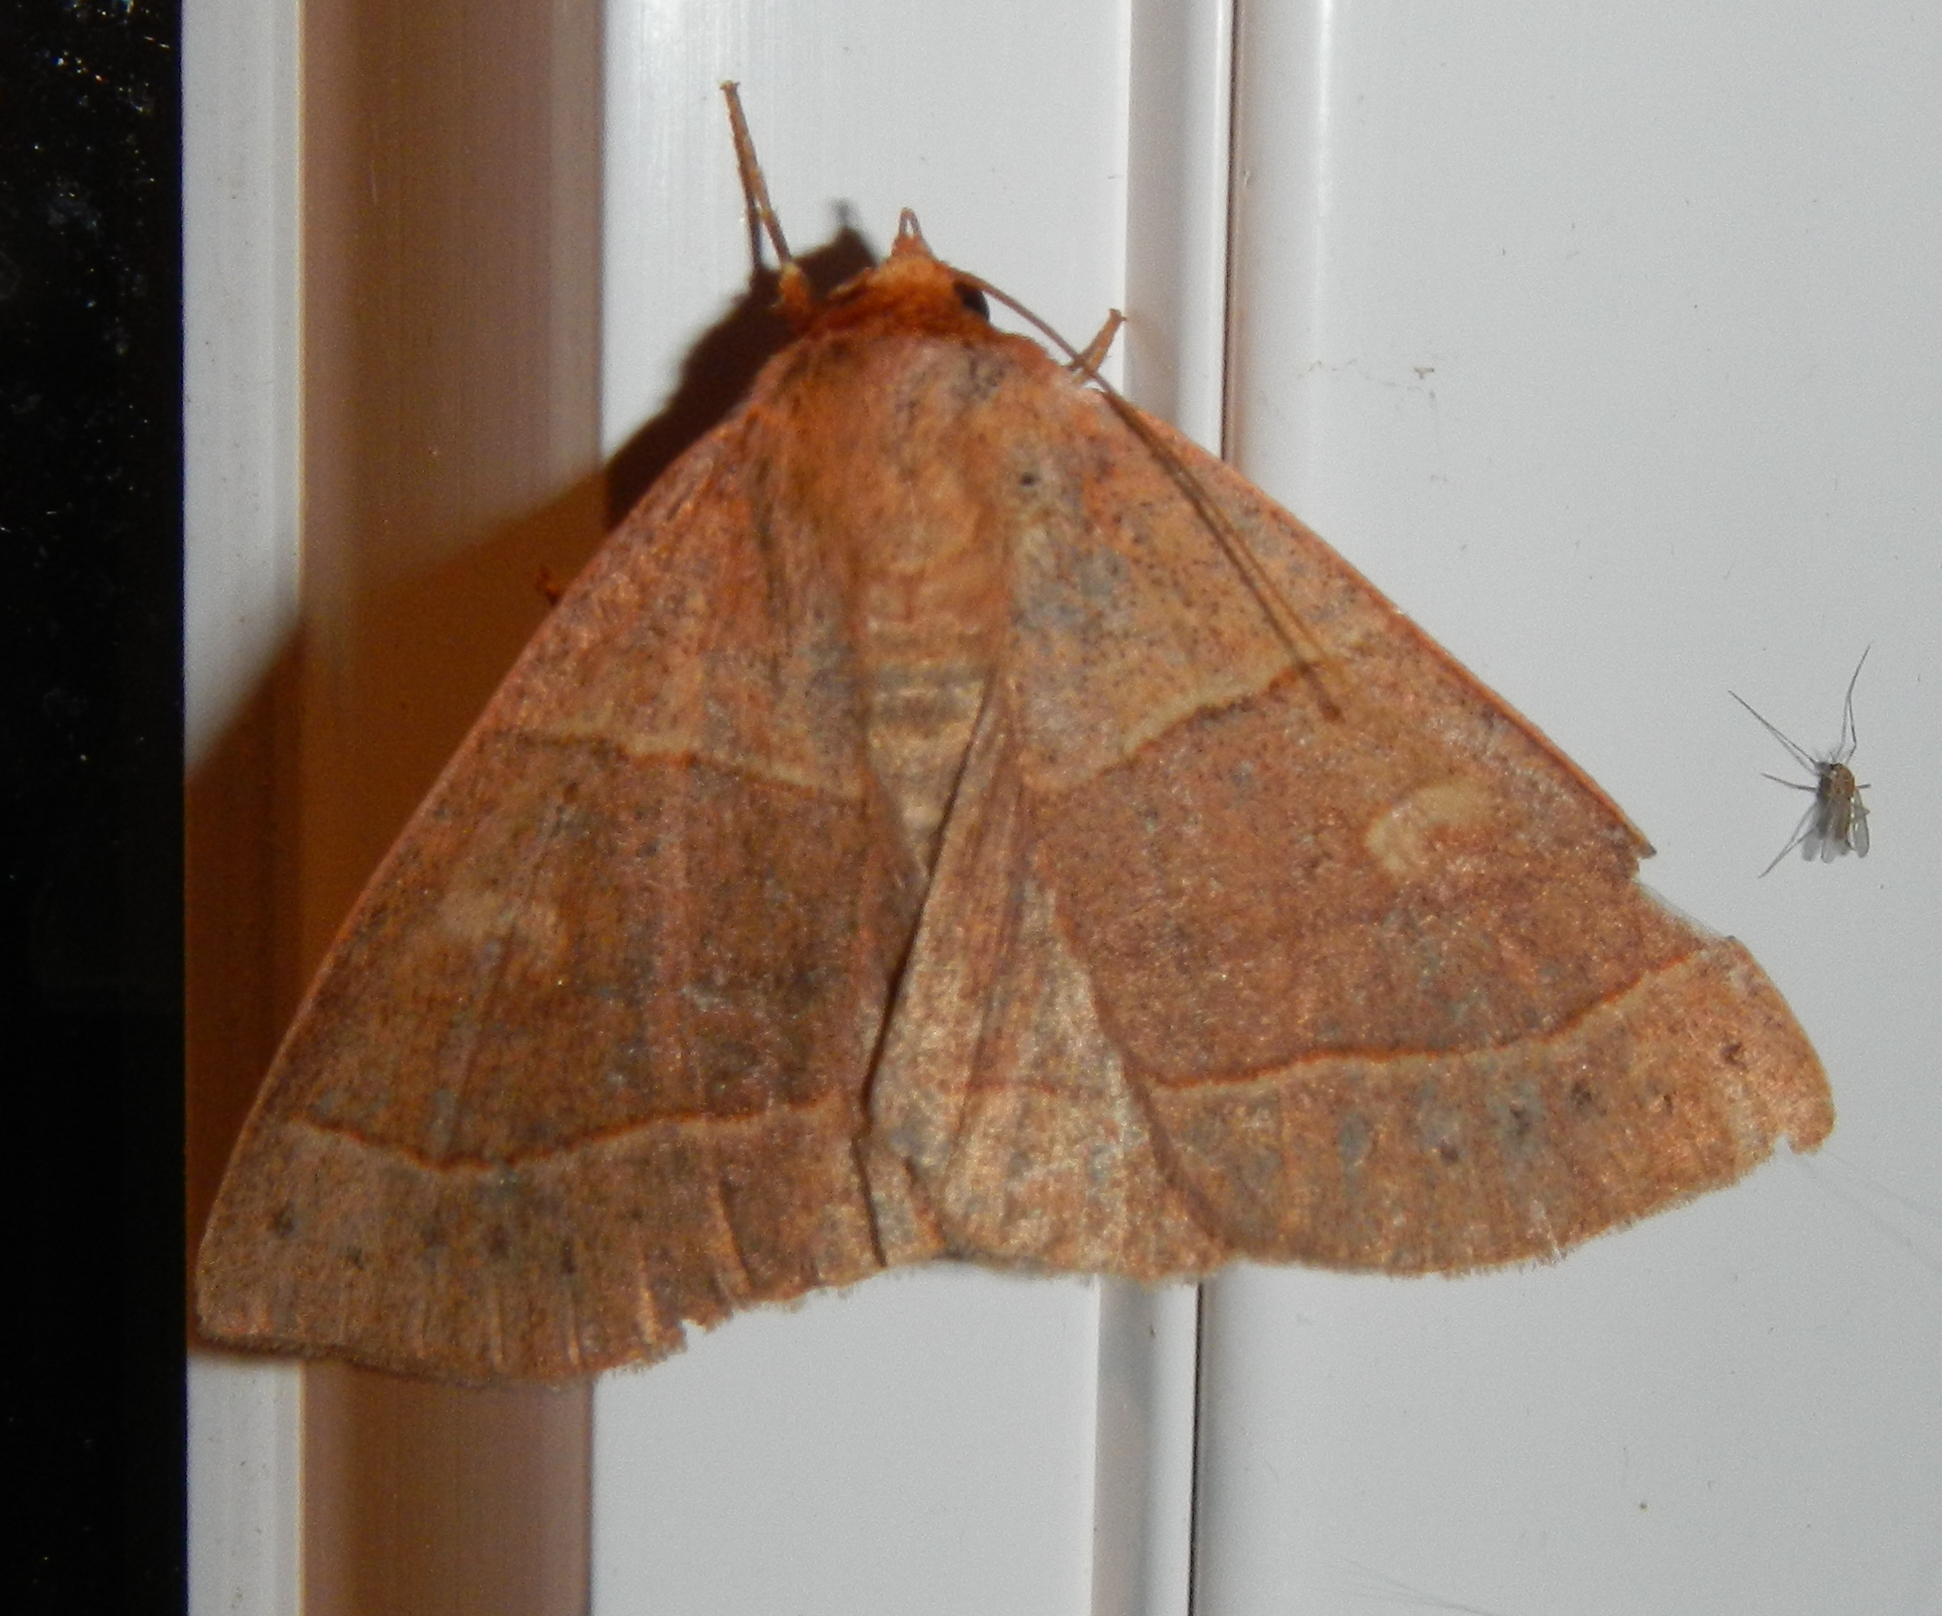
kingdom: Animalia
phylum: Arthropoda
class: Insecta
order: Lepidoptera
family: Erebidae
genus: Panopoda
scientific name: Panopoda rufimargo
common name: Red-lined panopoda moth
